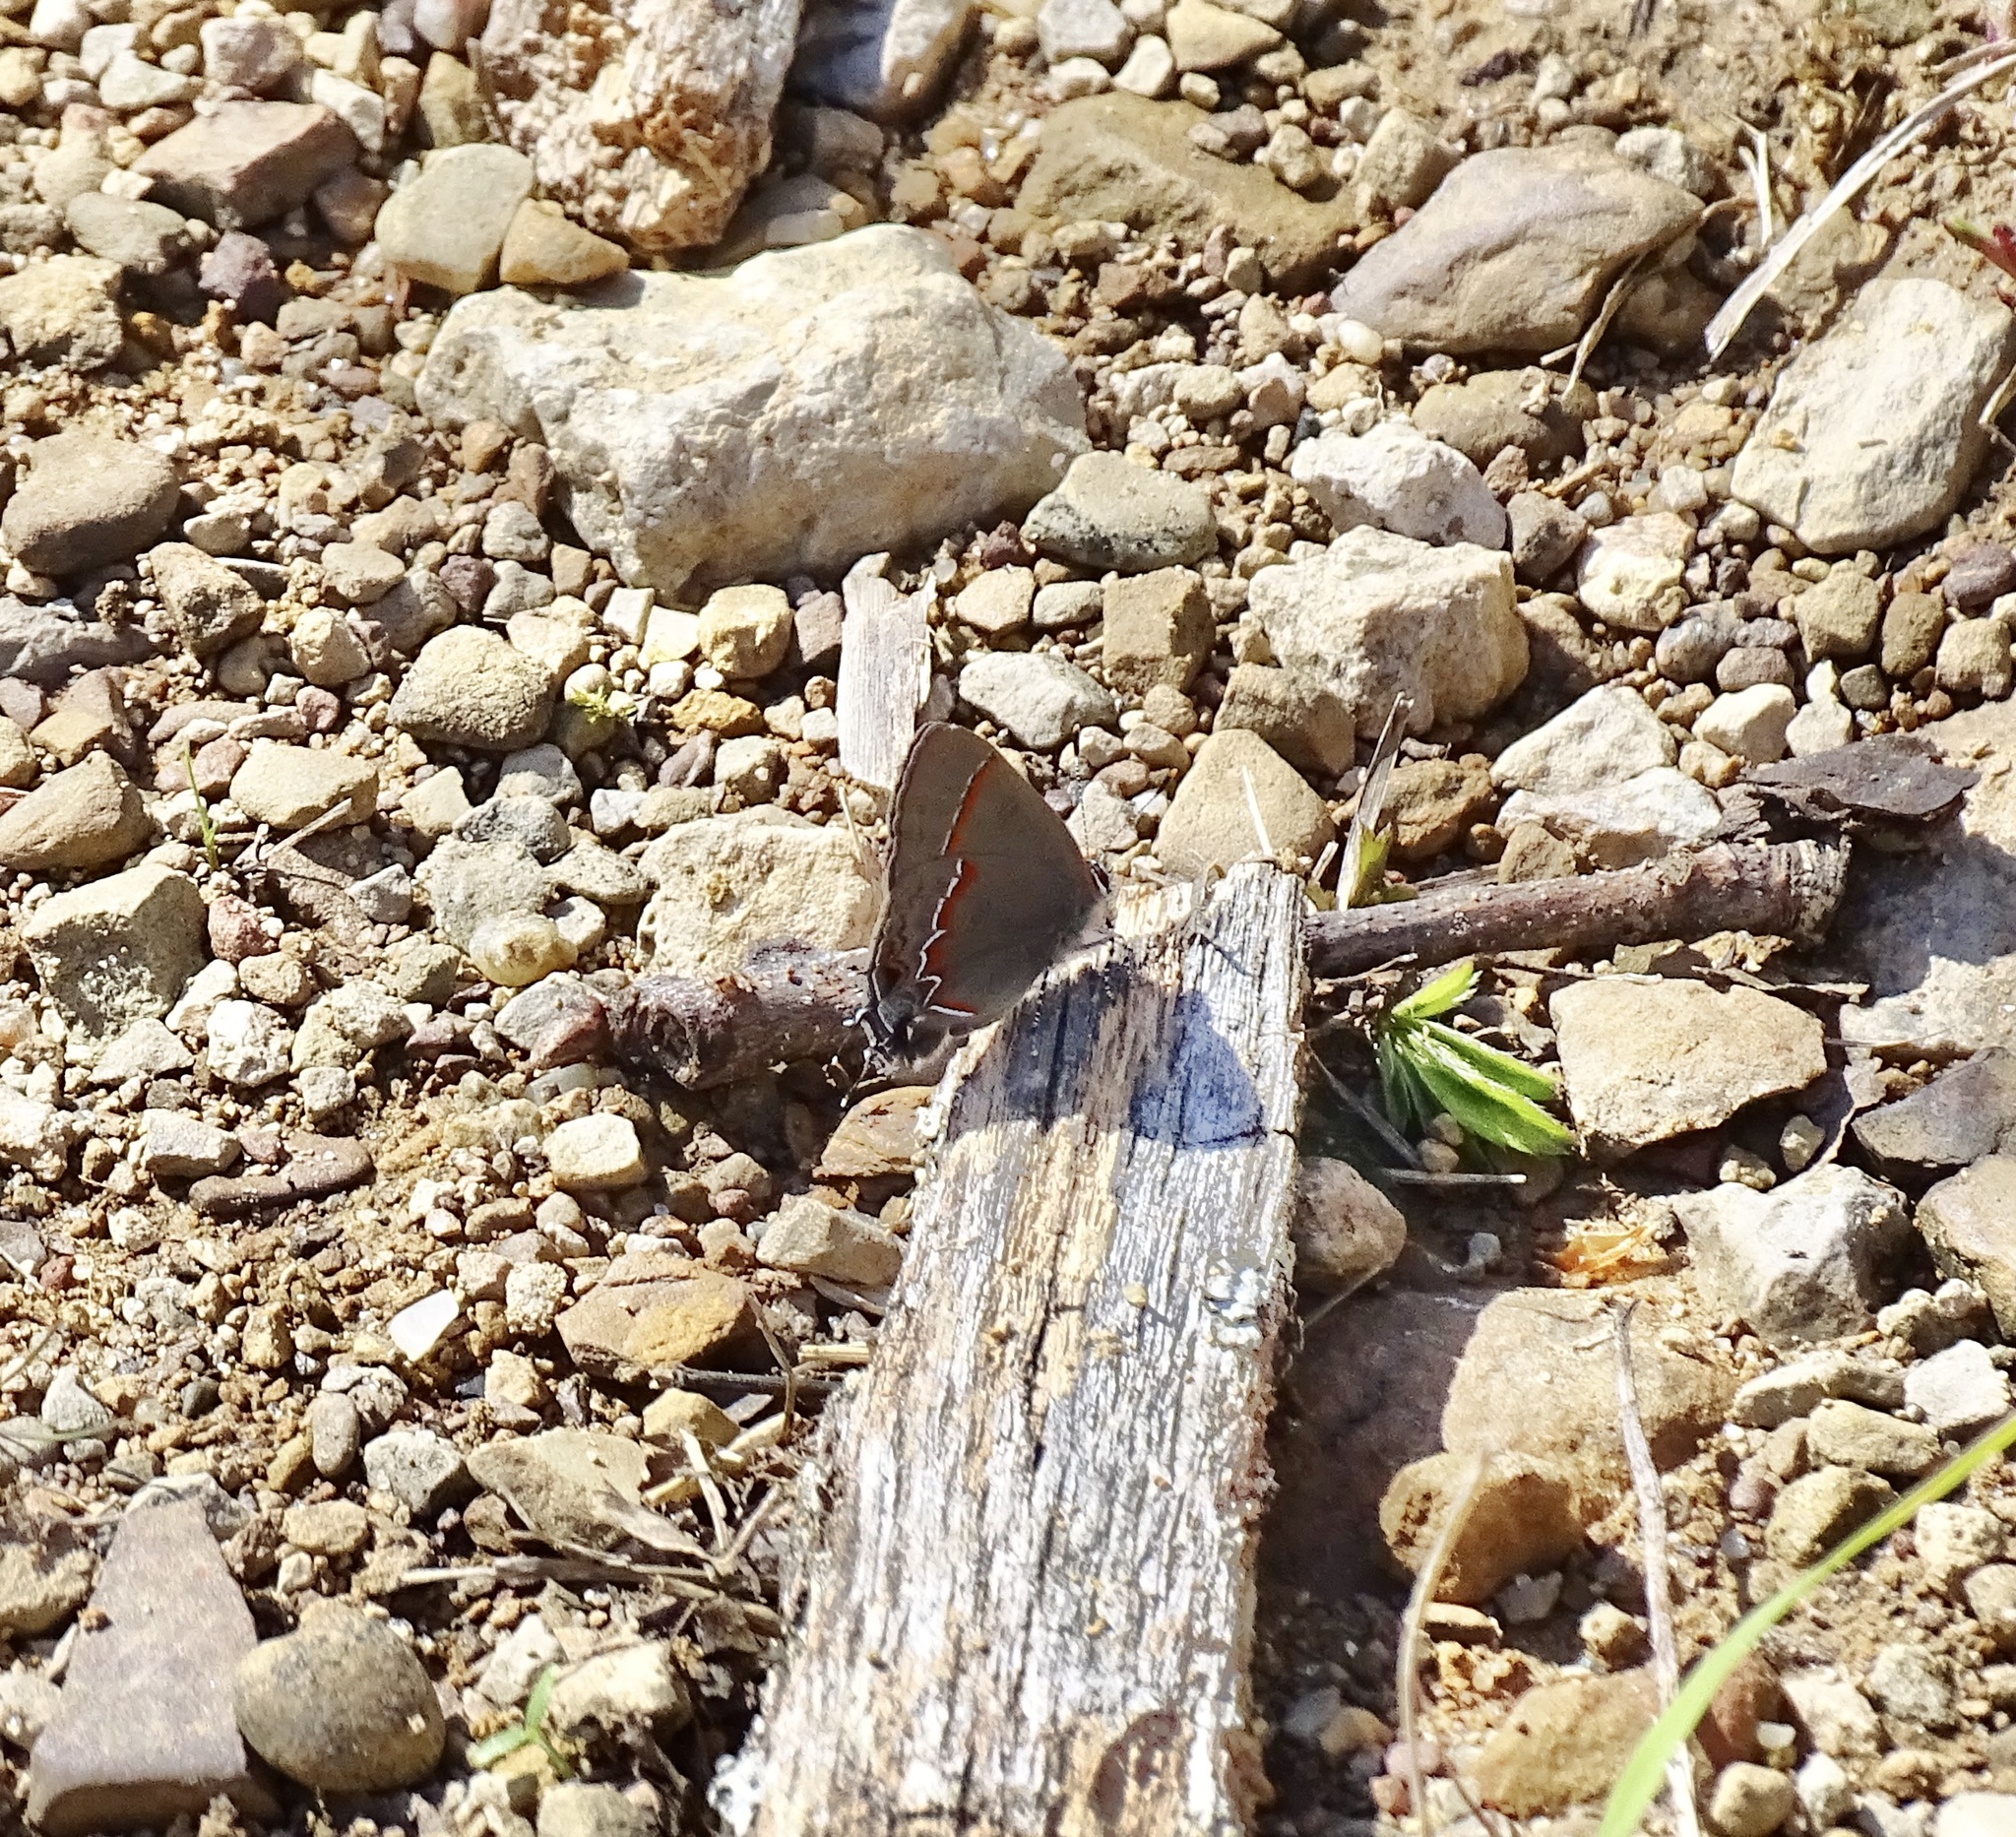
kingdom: Animalia
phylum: Arthropoda
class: Insecta
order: Lepidoptera
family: Lycaenidae
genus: Calycopis
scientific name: Calycopis cecrops
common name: Red-banded hairstreak
